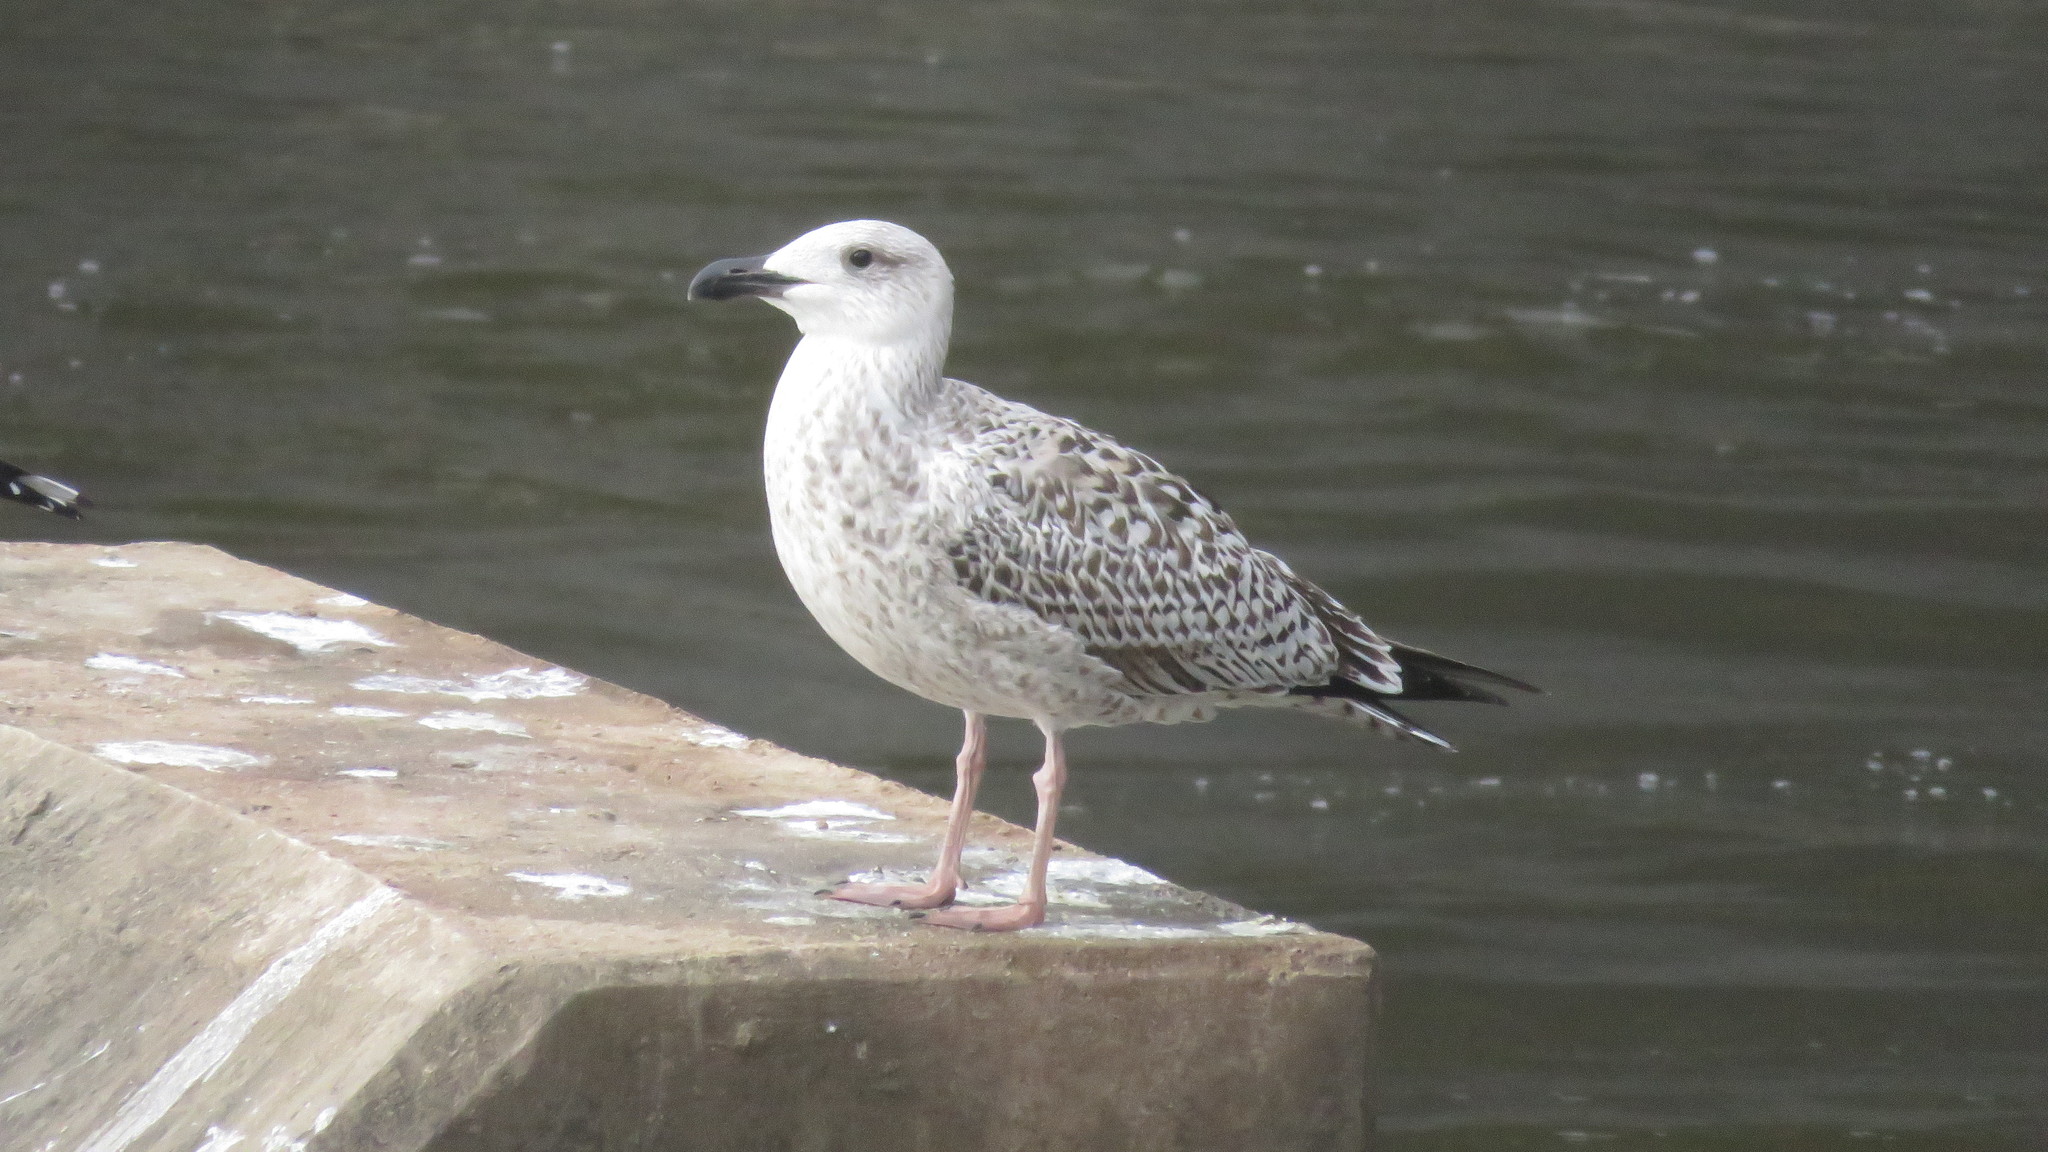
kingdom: Animalia
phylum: Chordata
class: Aves
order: Charadriiformes
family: Laridae
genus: Larus
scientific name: Larus marinus
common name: Great black-backed gull
